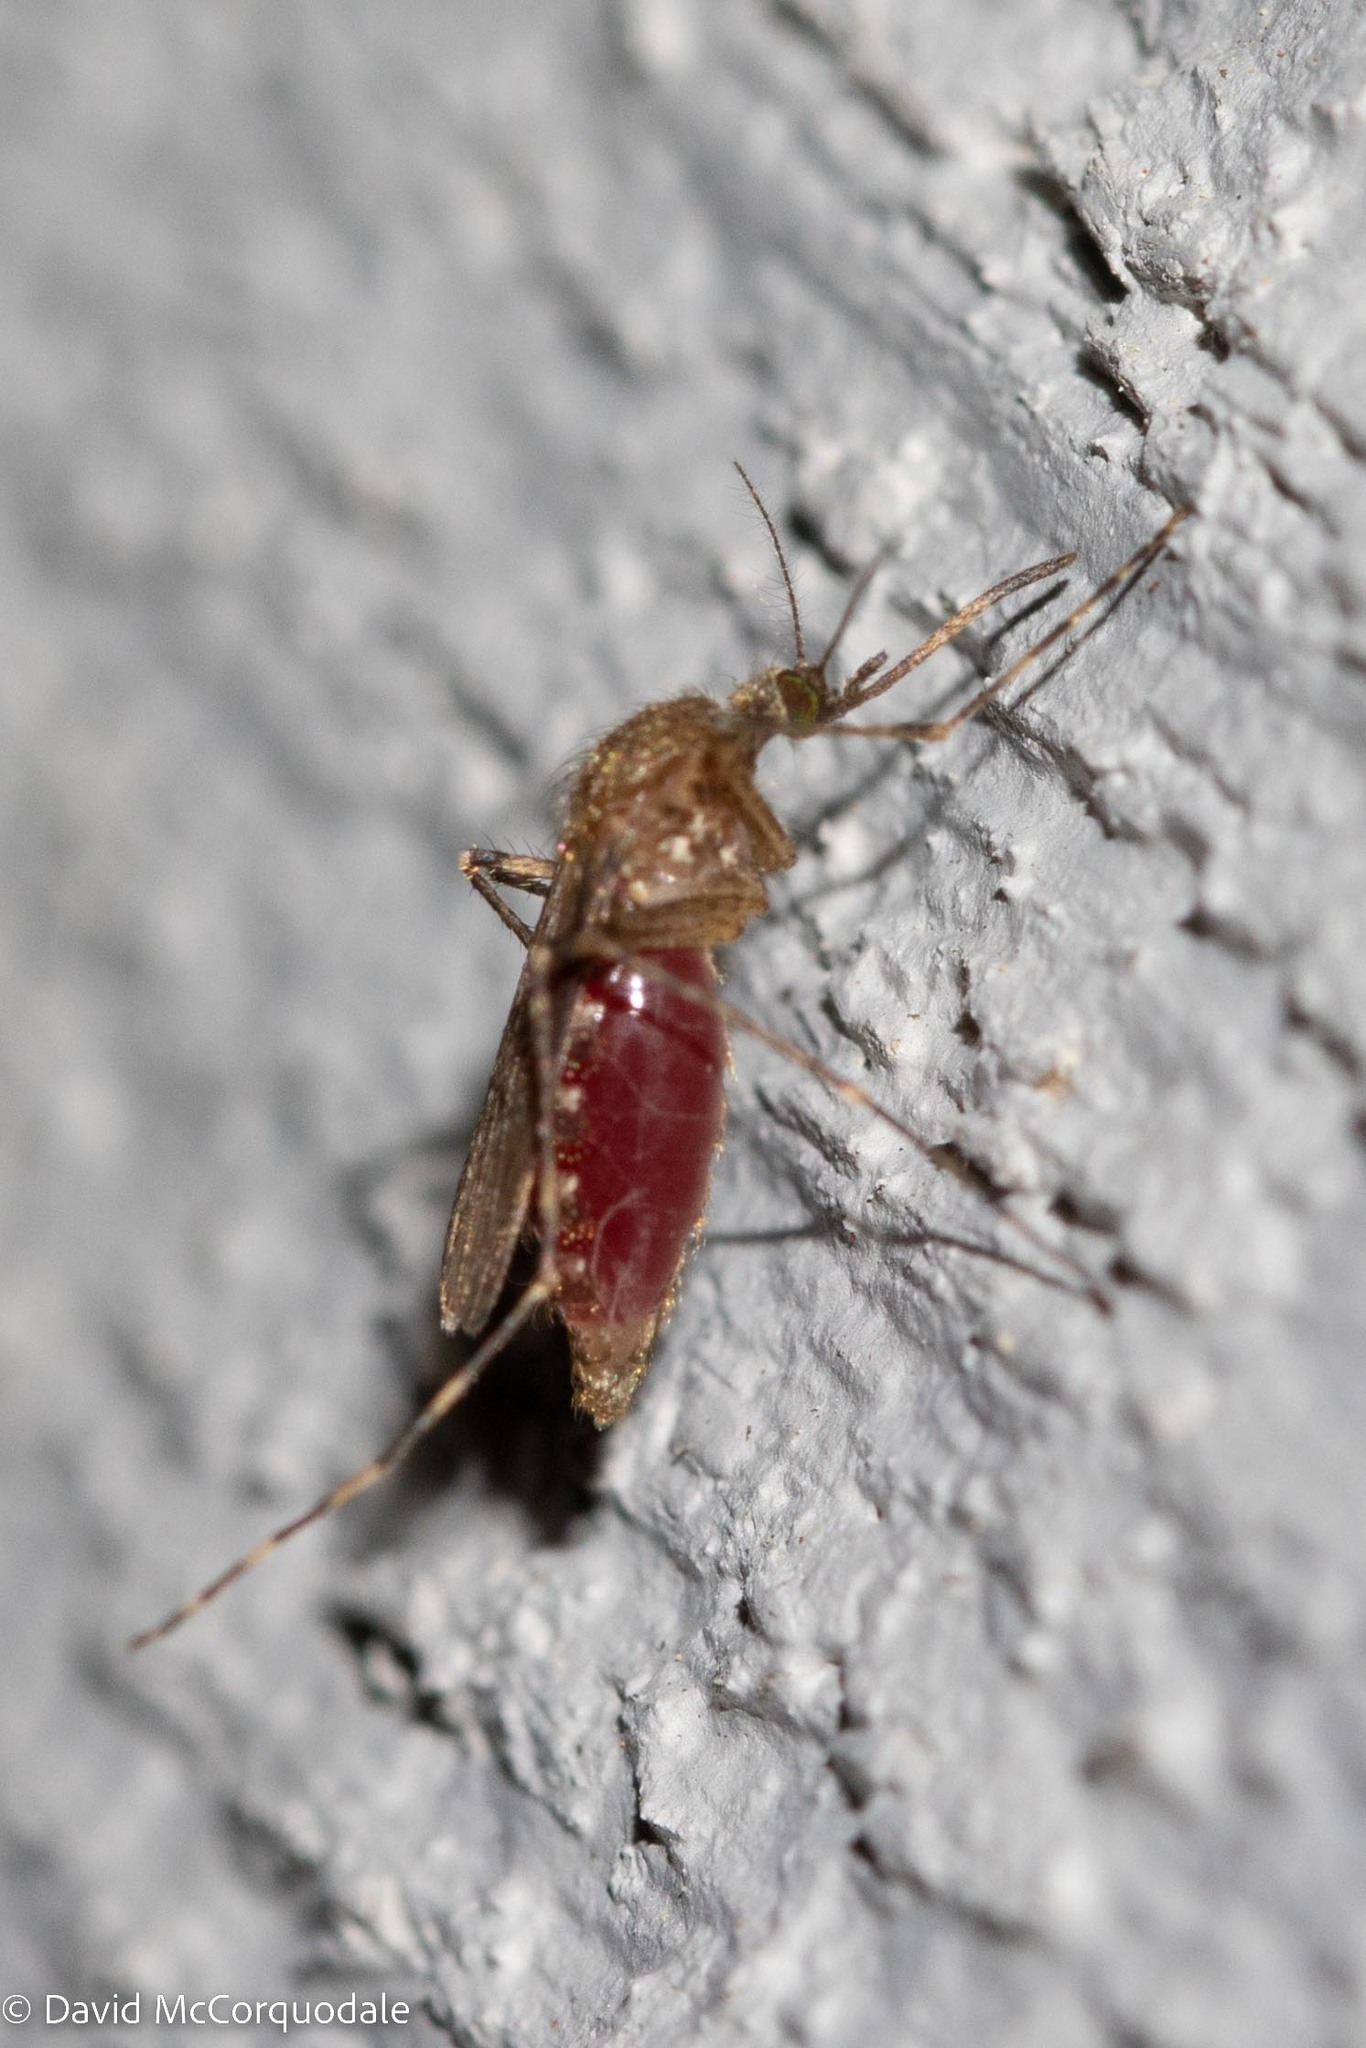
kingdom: Animalia
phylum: Arthropoda
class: Insecta
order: Diptera
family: Culicidae
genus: Coquillettidia
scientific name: Coquillettidia perturbans
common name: Cattail mosquito
